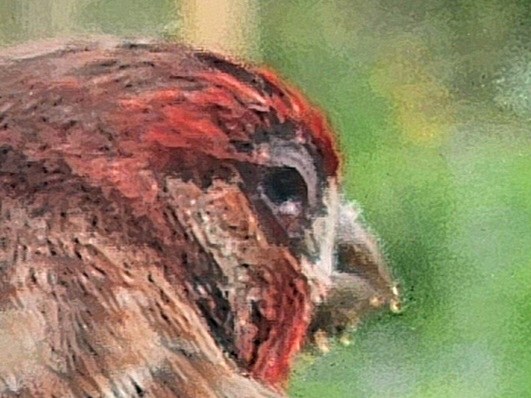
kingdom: Bacteria
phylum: Firmicutes
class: Bacilli
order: Mycoplasmatales
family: Mycoplasmataceae
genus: Mycoplasma
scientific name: Mycoplasma gallisepticum
